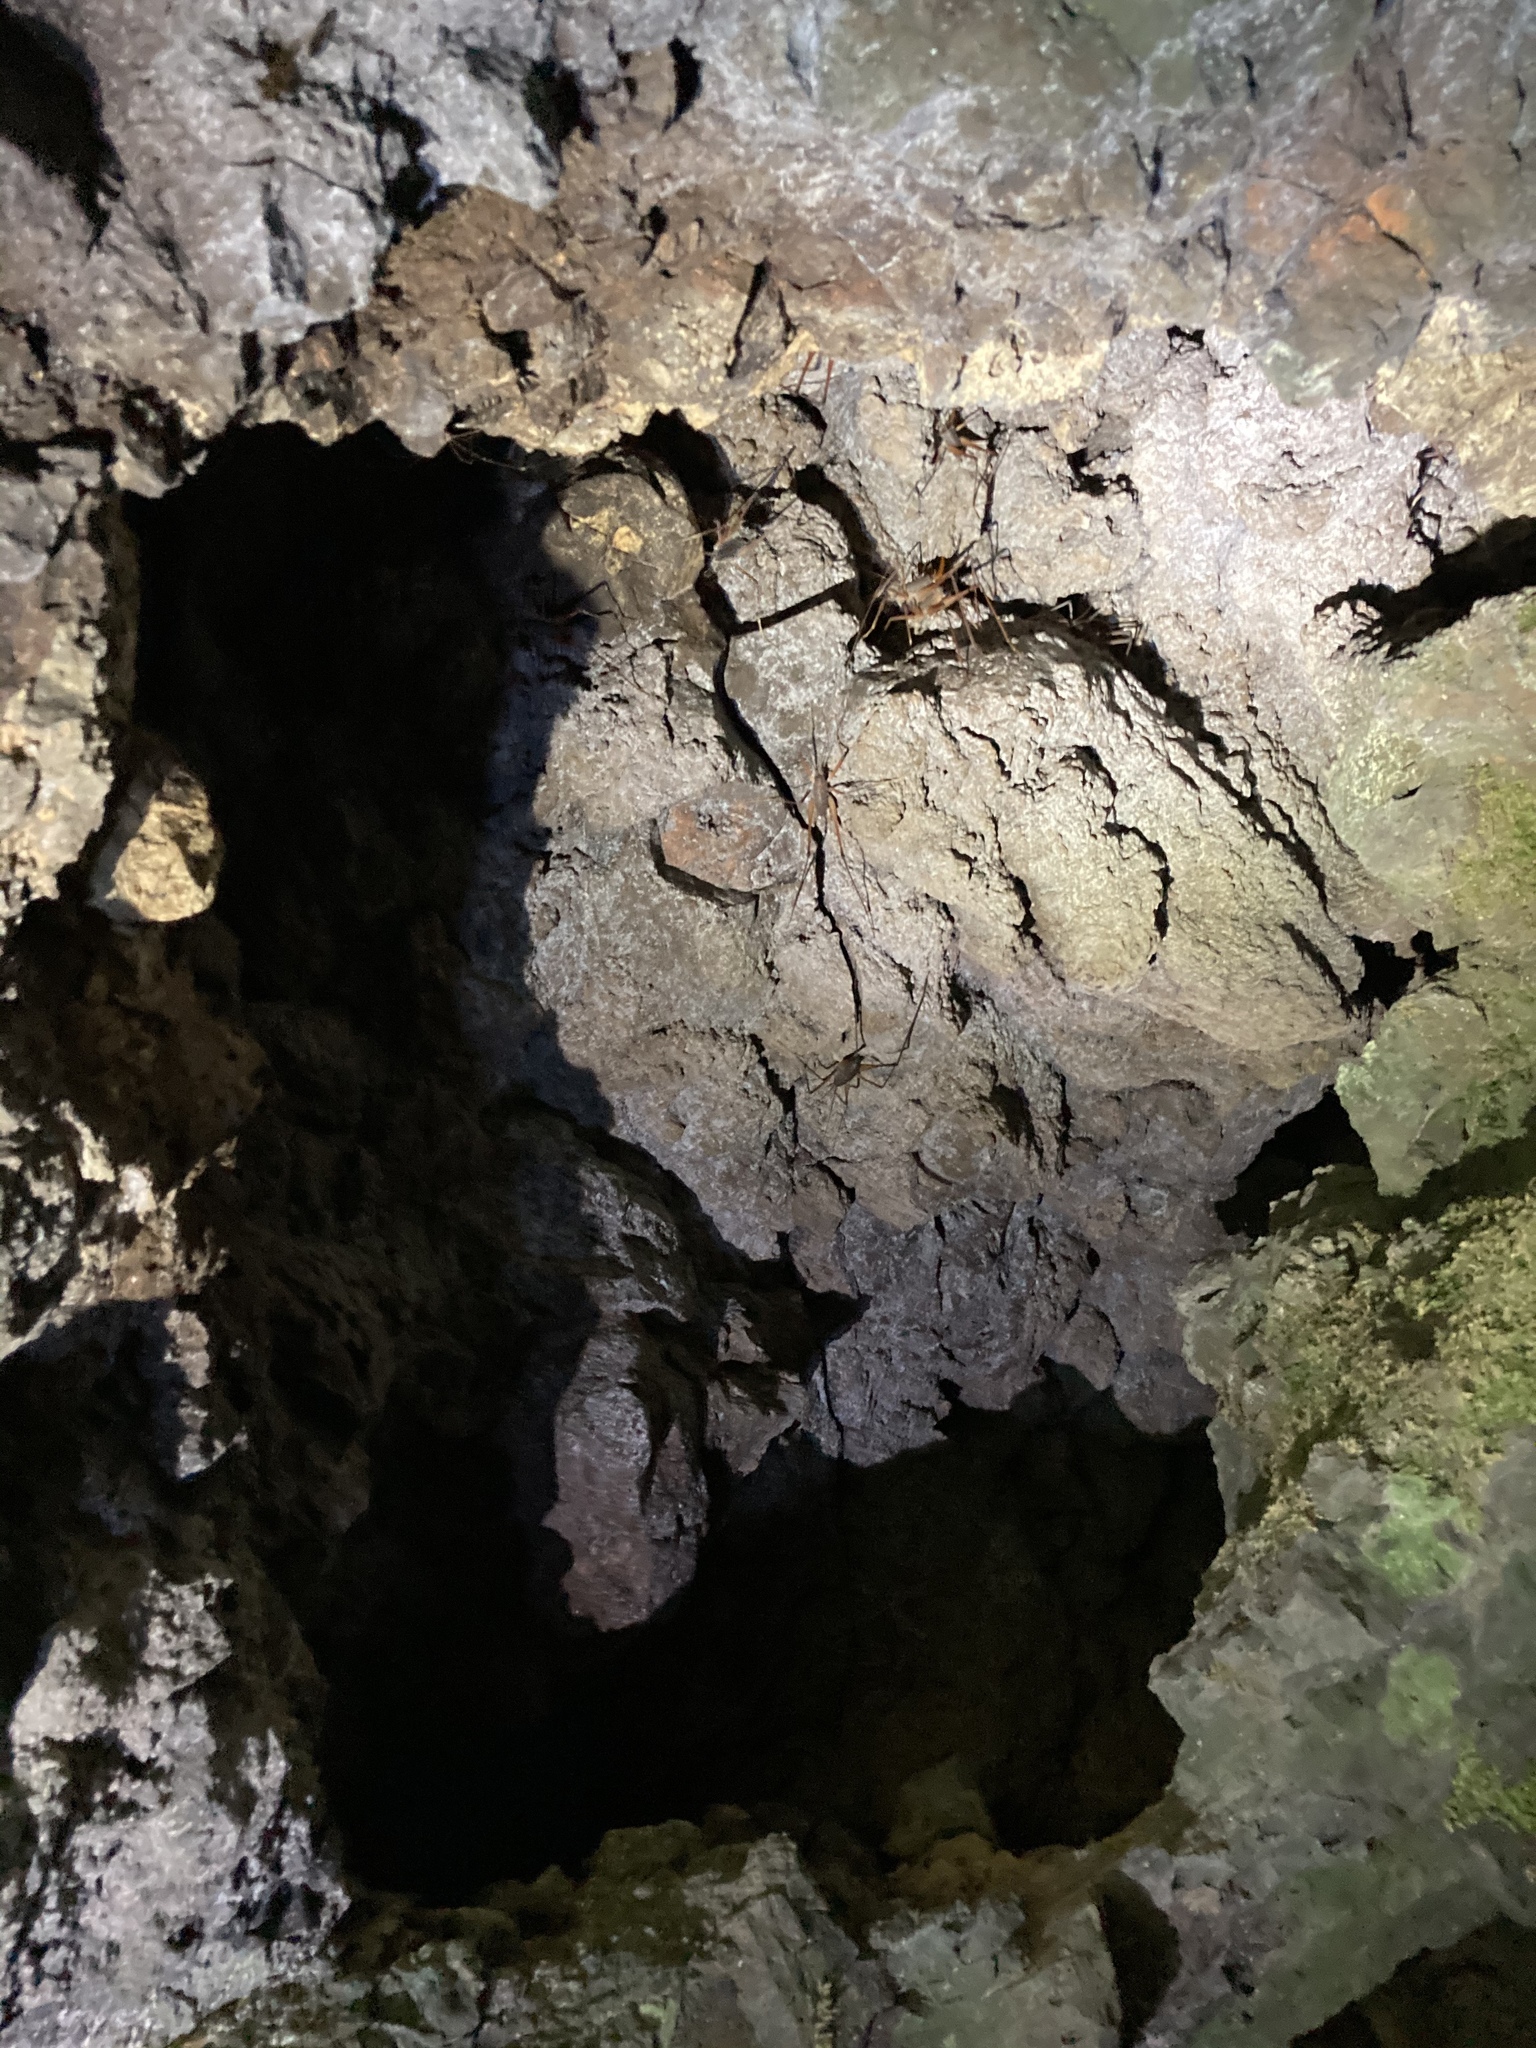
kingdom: Animalia
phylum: Arthropoda
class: Insecta
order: Orthoptera
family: Rhaphidophoridae
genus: Tropidischia
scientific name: Tropidischia xanthostoma
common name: Square-legged camel cricket
